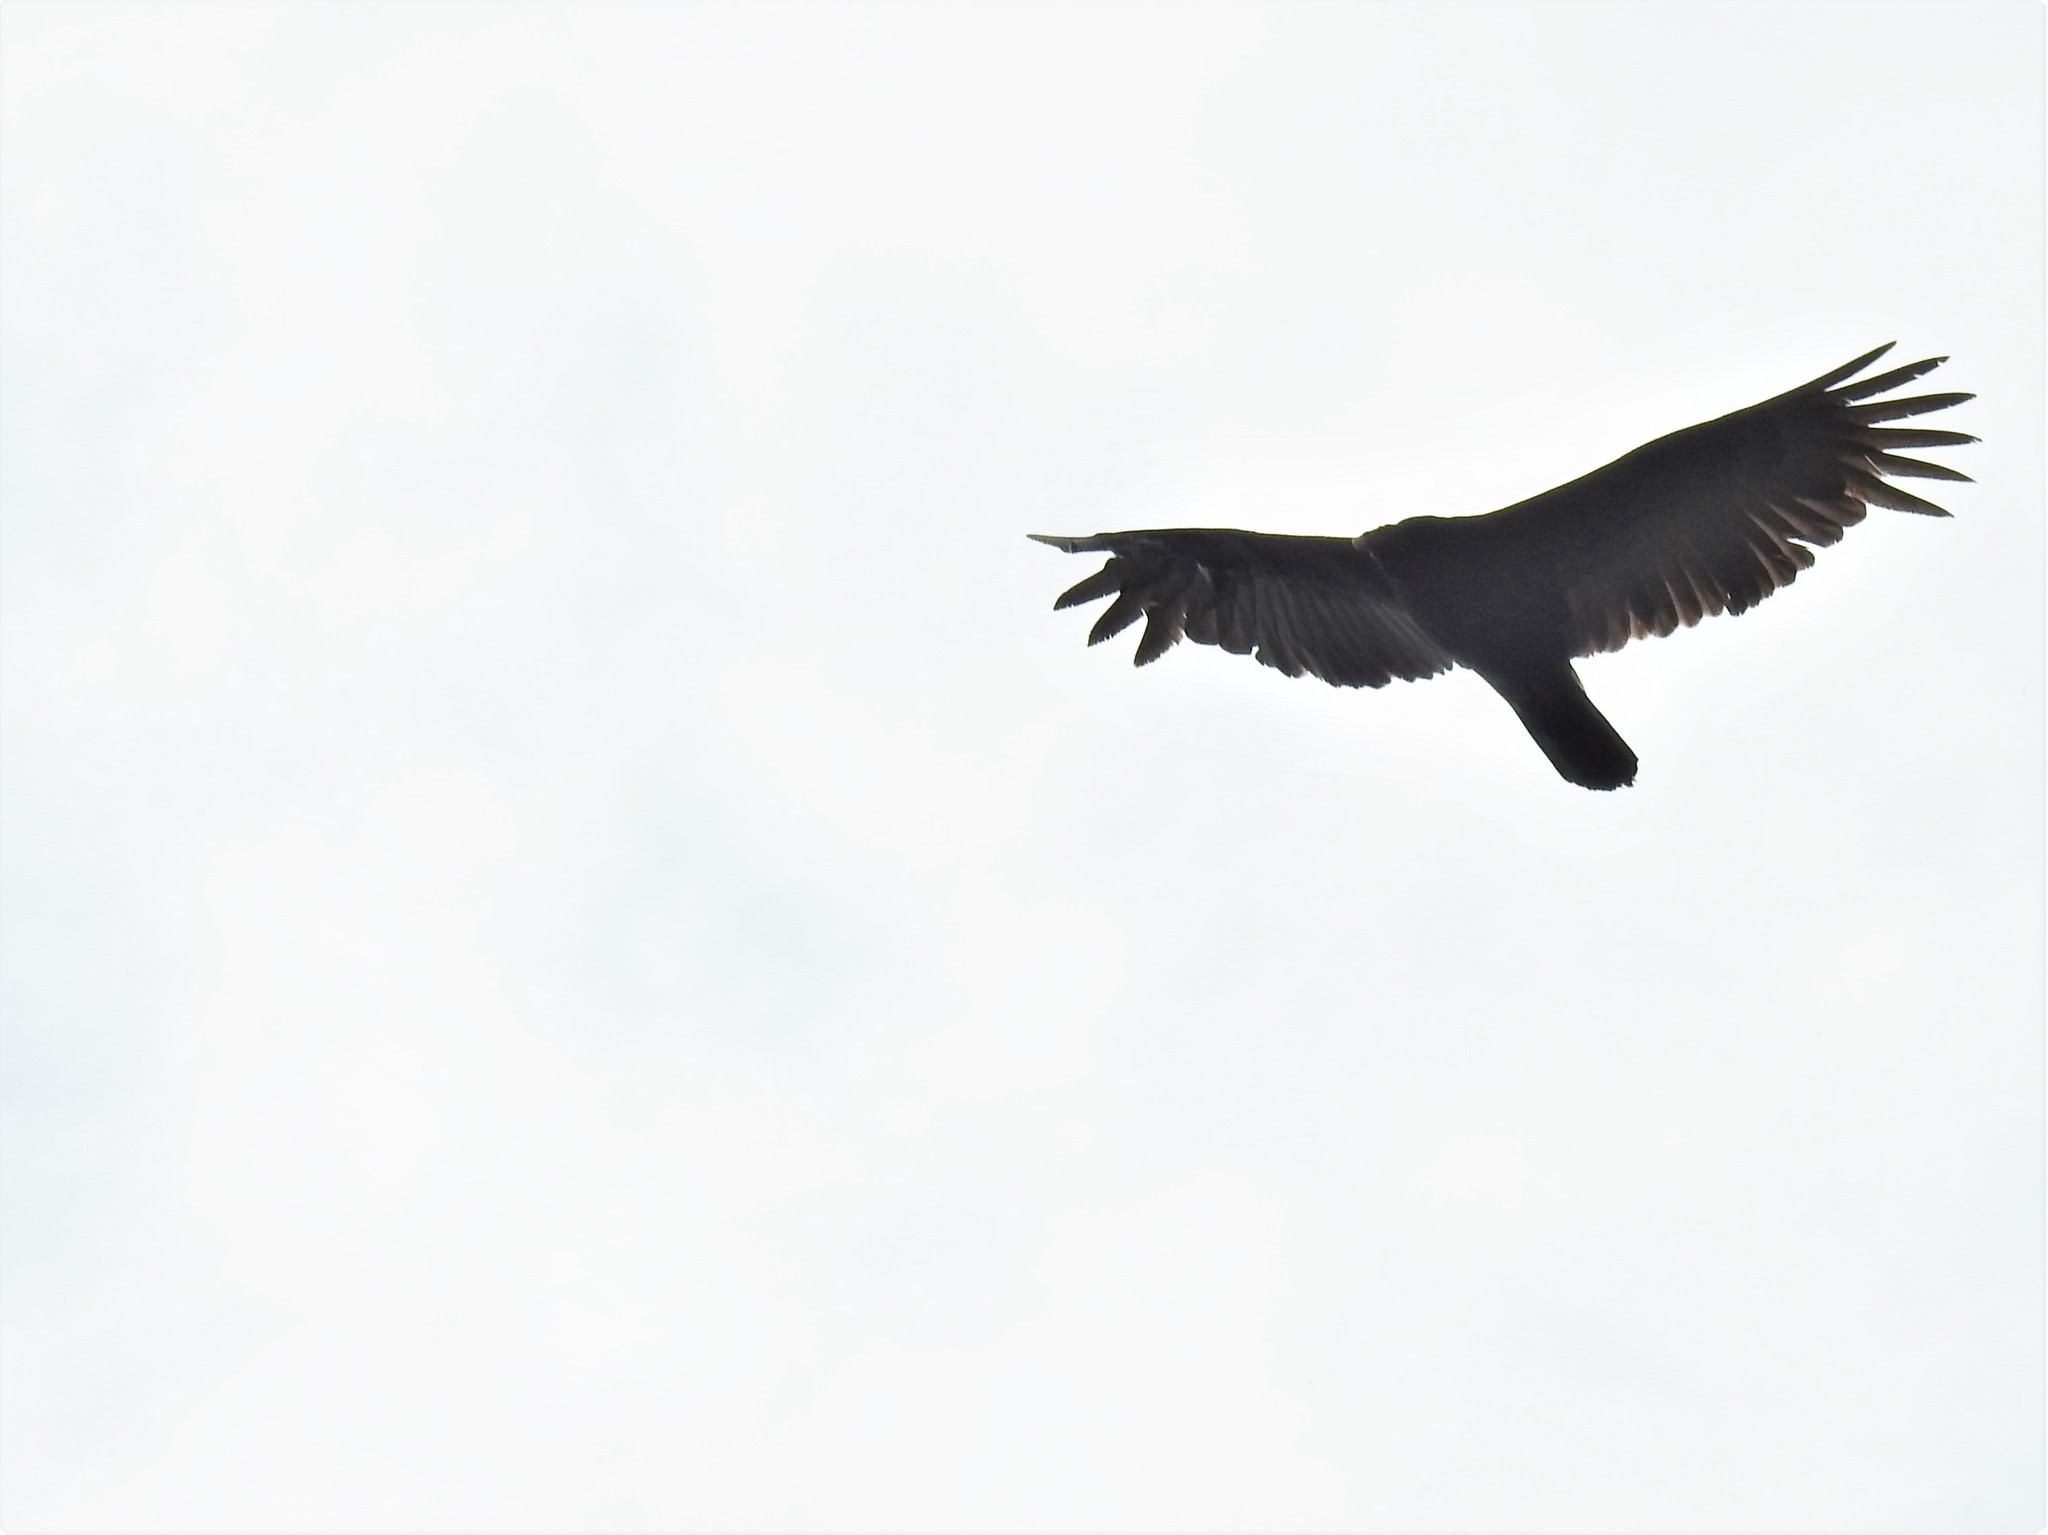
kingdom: Animalia
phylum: Chordata
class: Aves
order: Accipitriformes
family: Cathartidae
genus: Cathartes
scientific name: Cathartes aura
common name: Turkey vulture
